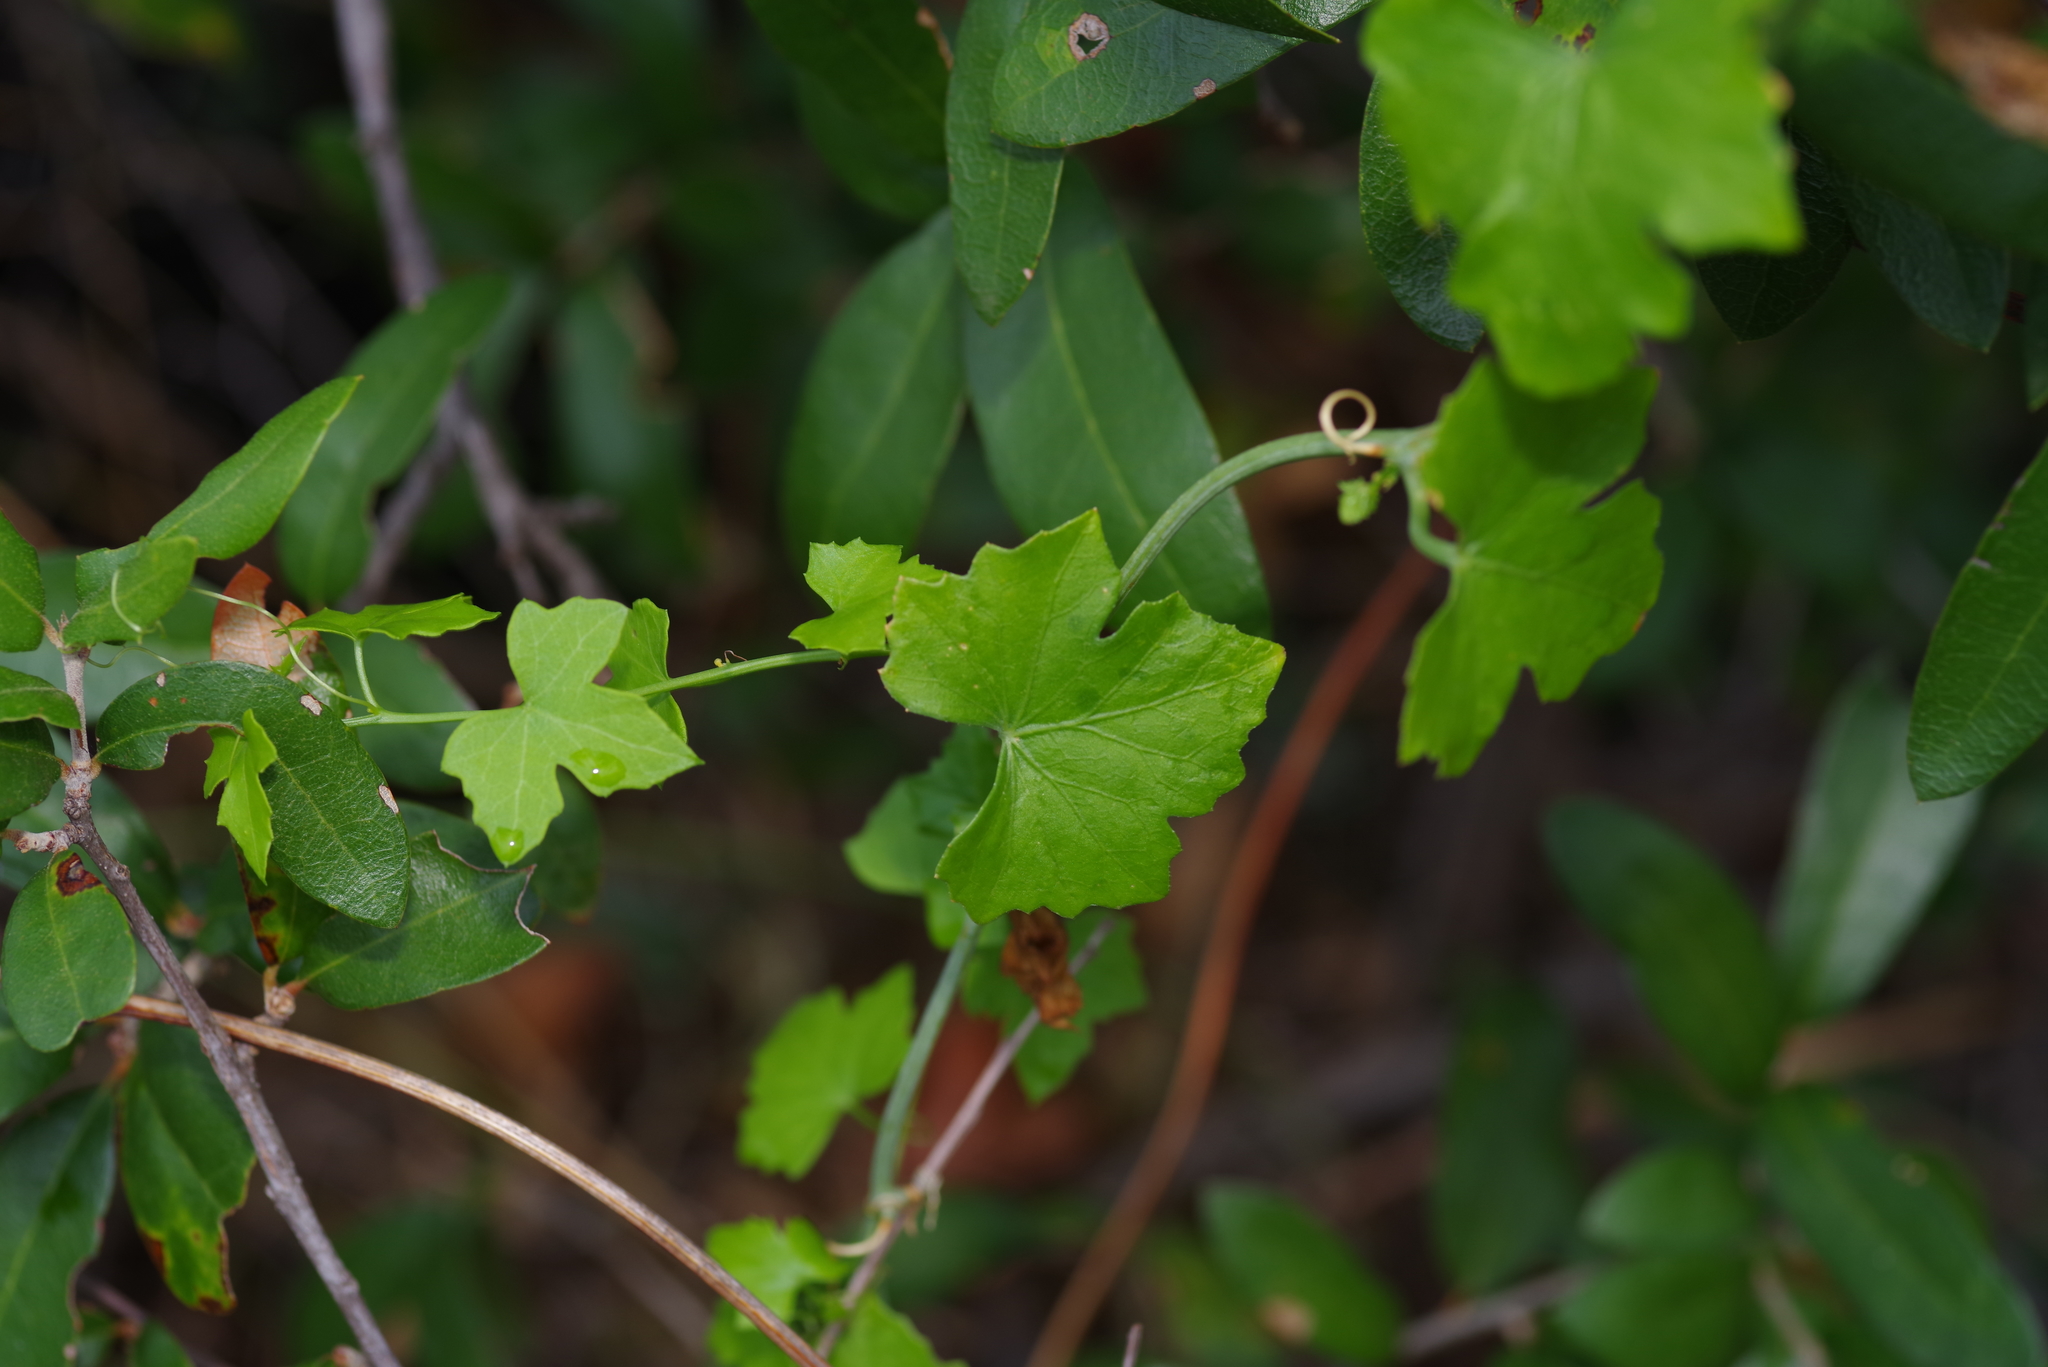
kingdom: Plantae
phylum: Tracheophyta
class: Magnoliopsida
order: Cucurbitales
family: Cucurbitaceae
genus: Ibervillea
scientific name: Ibervillea lindheimeri
